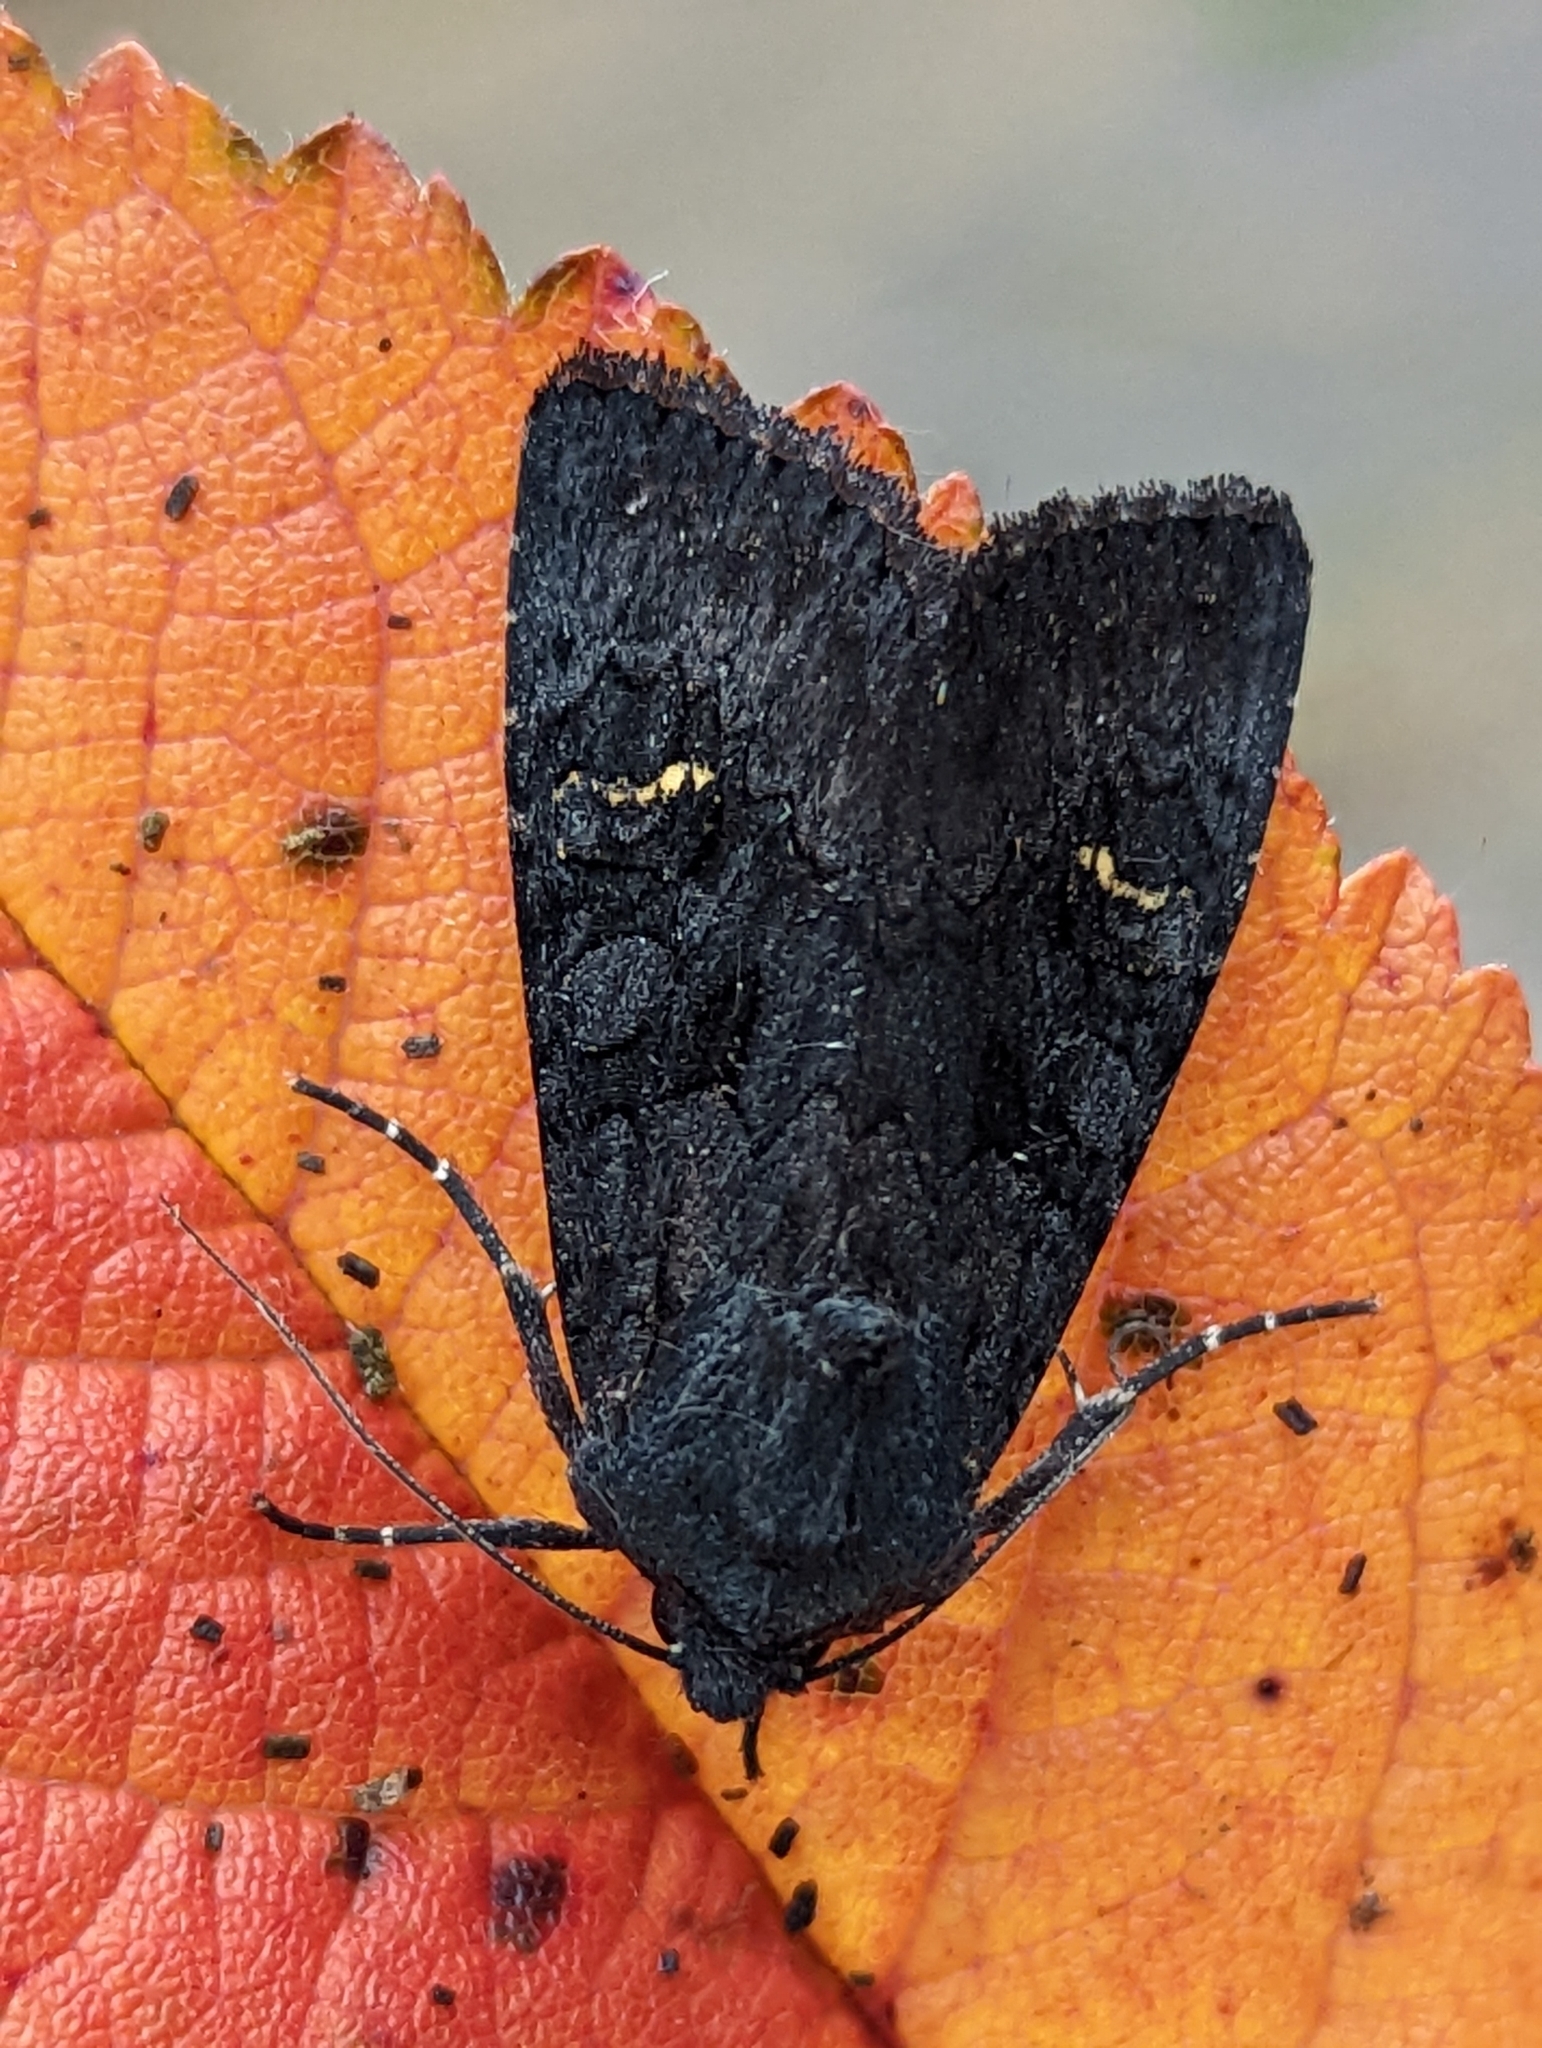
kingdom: Animalia
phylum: Arthropoda
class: Insecta
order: Lepidoptera
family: Noctuidae
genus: Aporophyla
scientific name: Aporophyla nigra
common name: Black rustic
